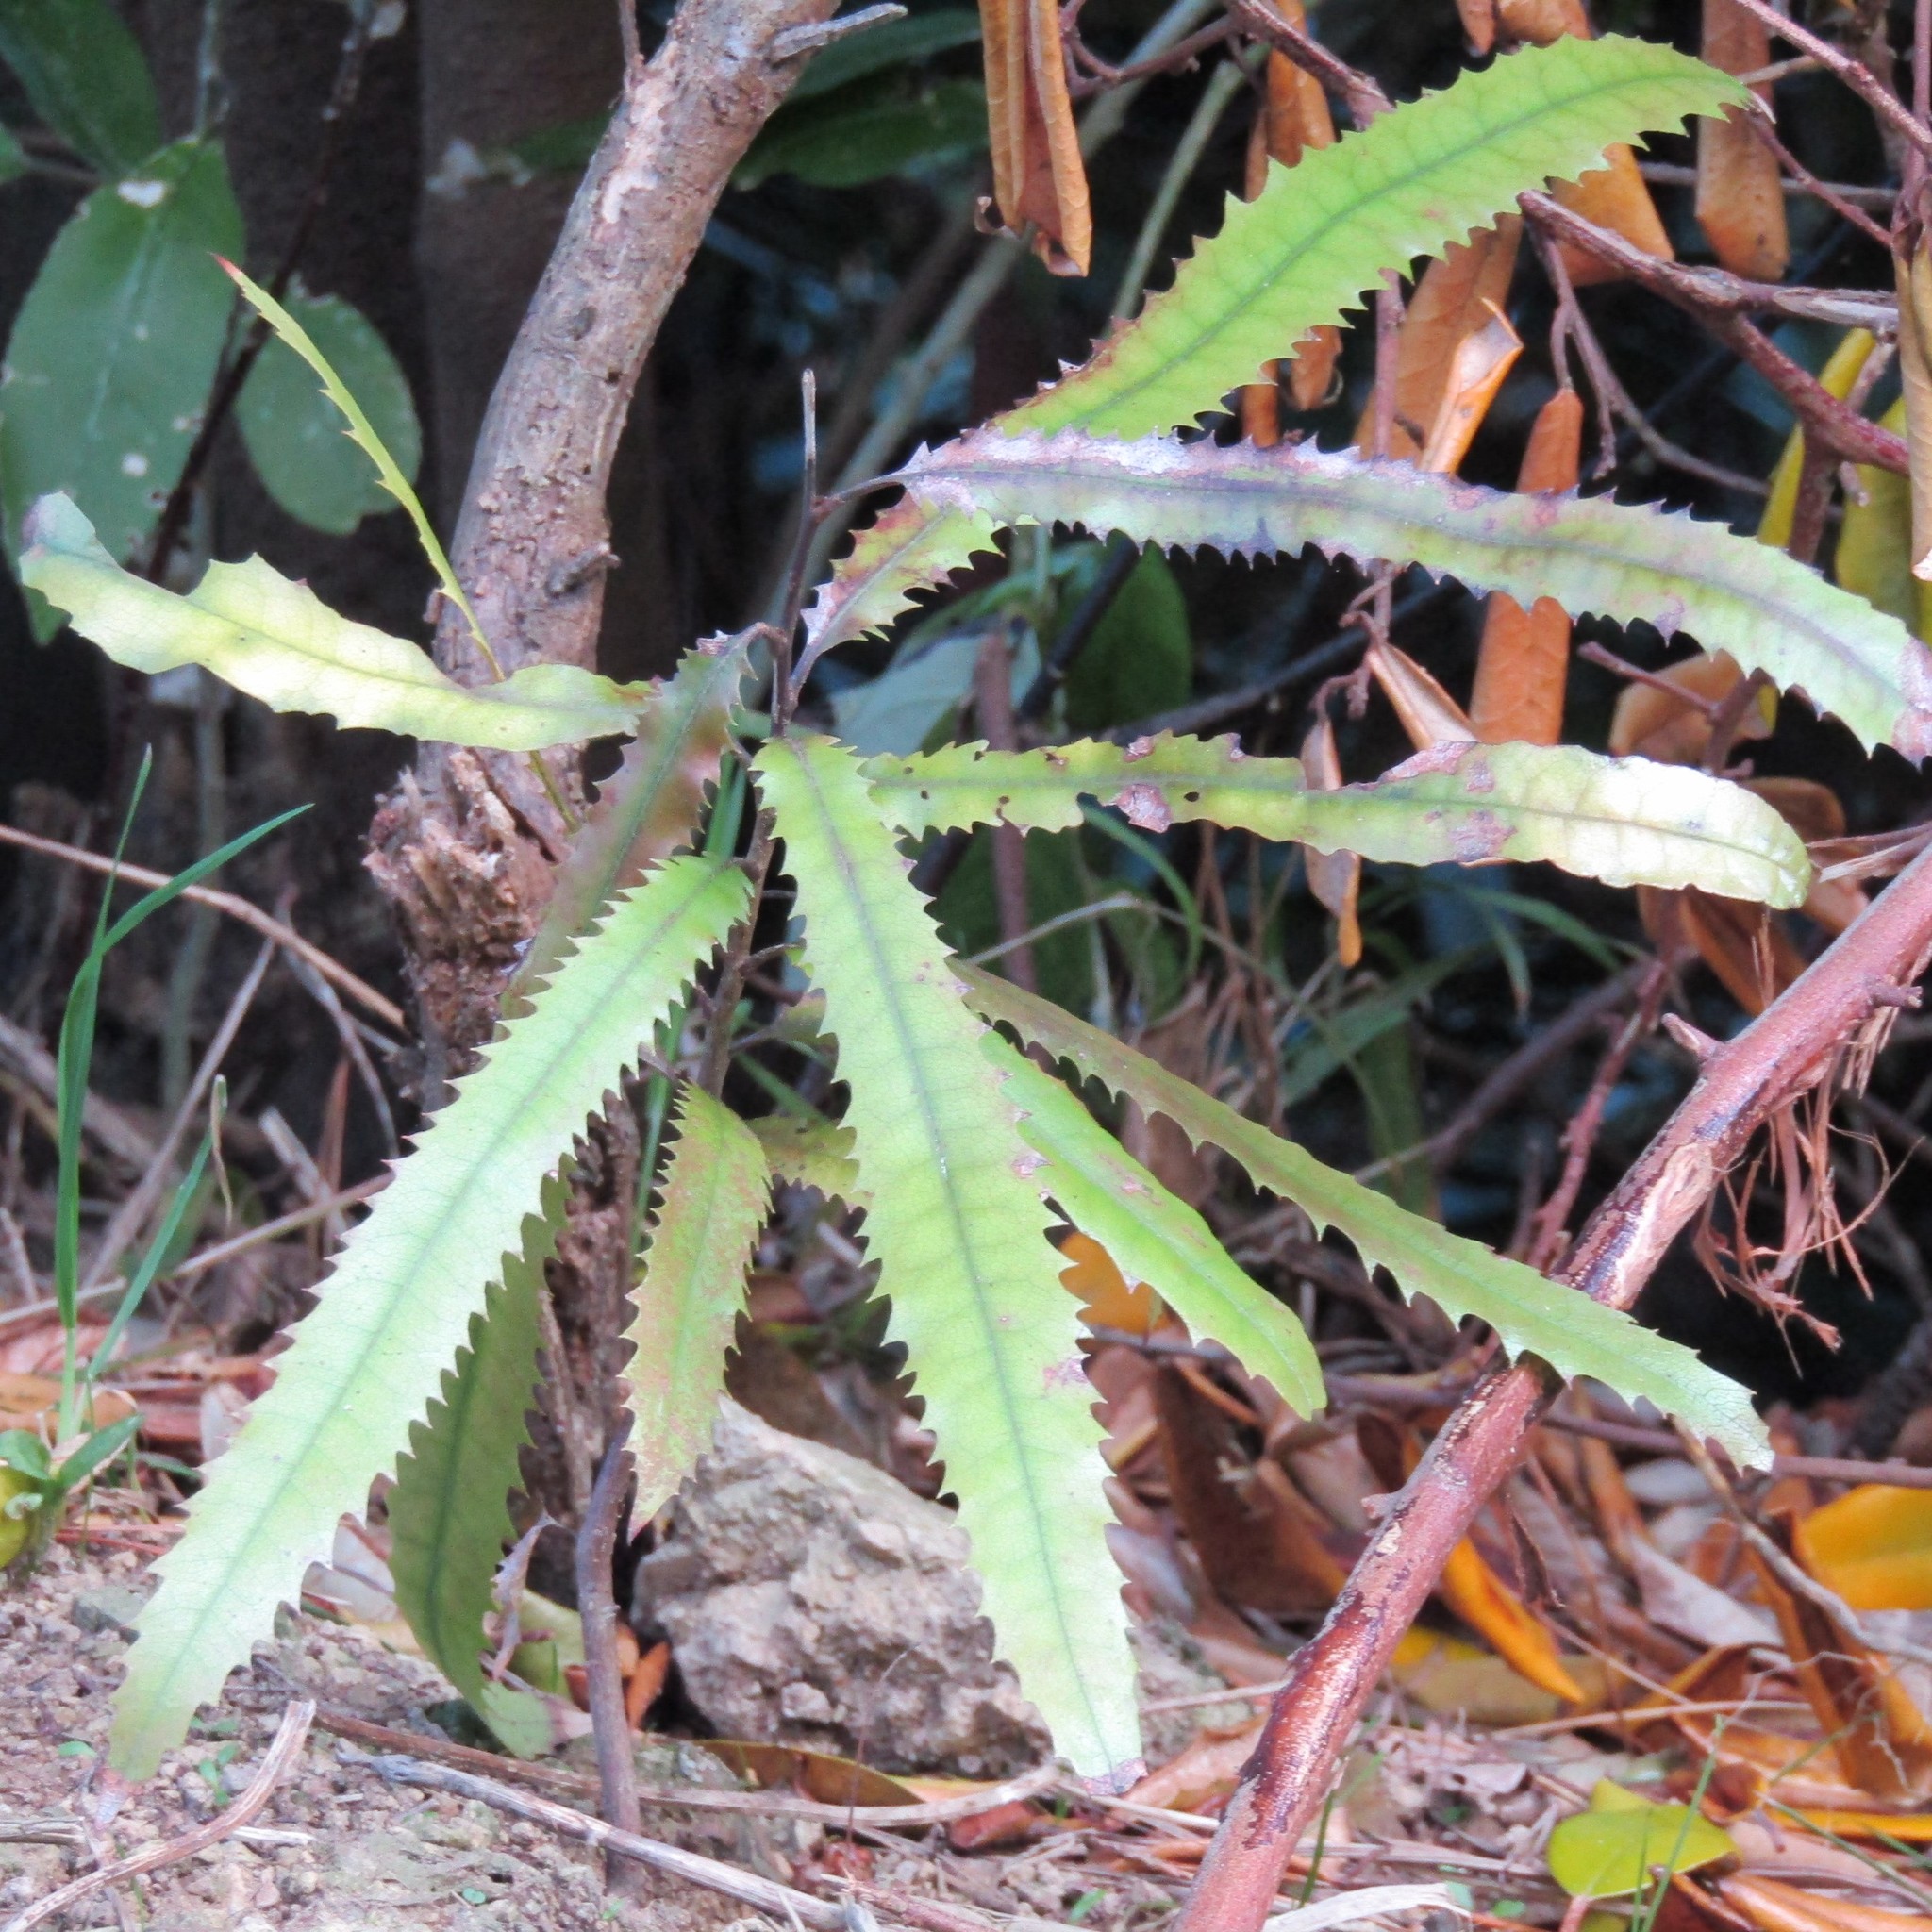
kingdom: Plantae
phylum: Tracheophyta
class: Magnoliopsida
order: Proteales
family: Proteaceae
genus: Knightia
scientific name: Knightia excelsa
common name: New zealand-honeysuckle
